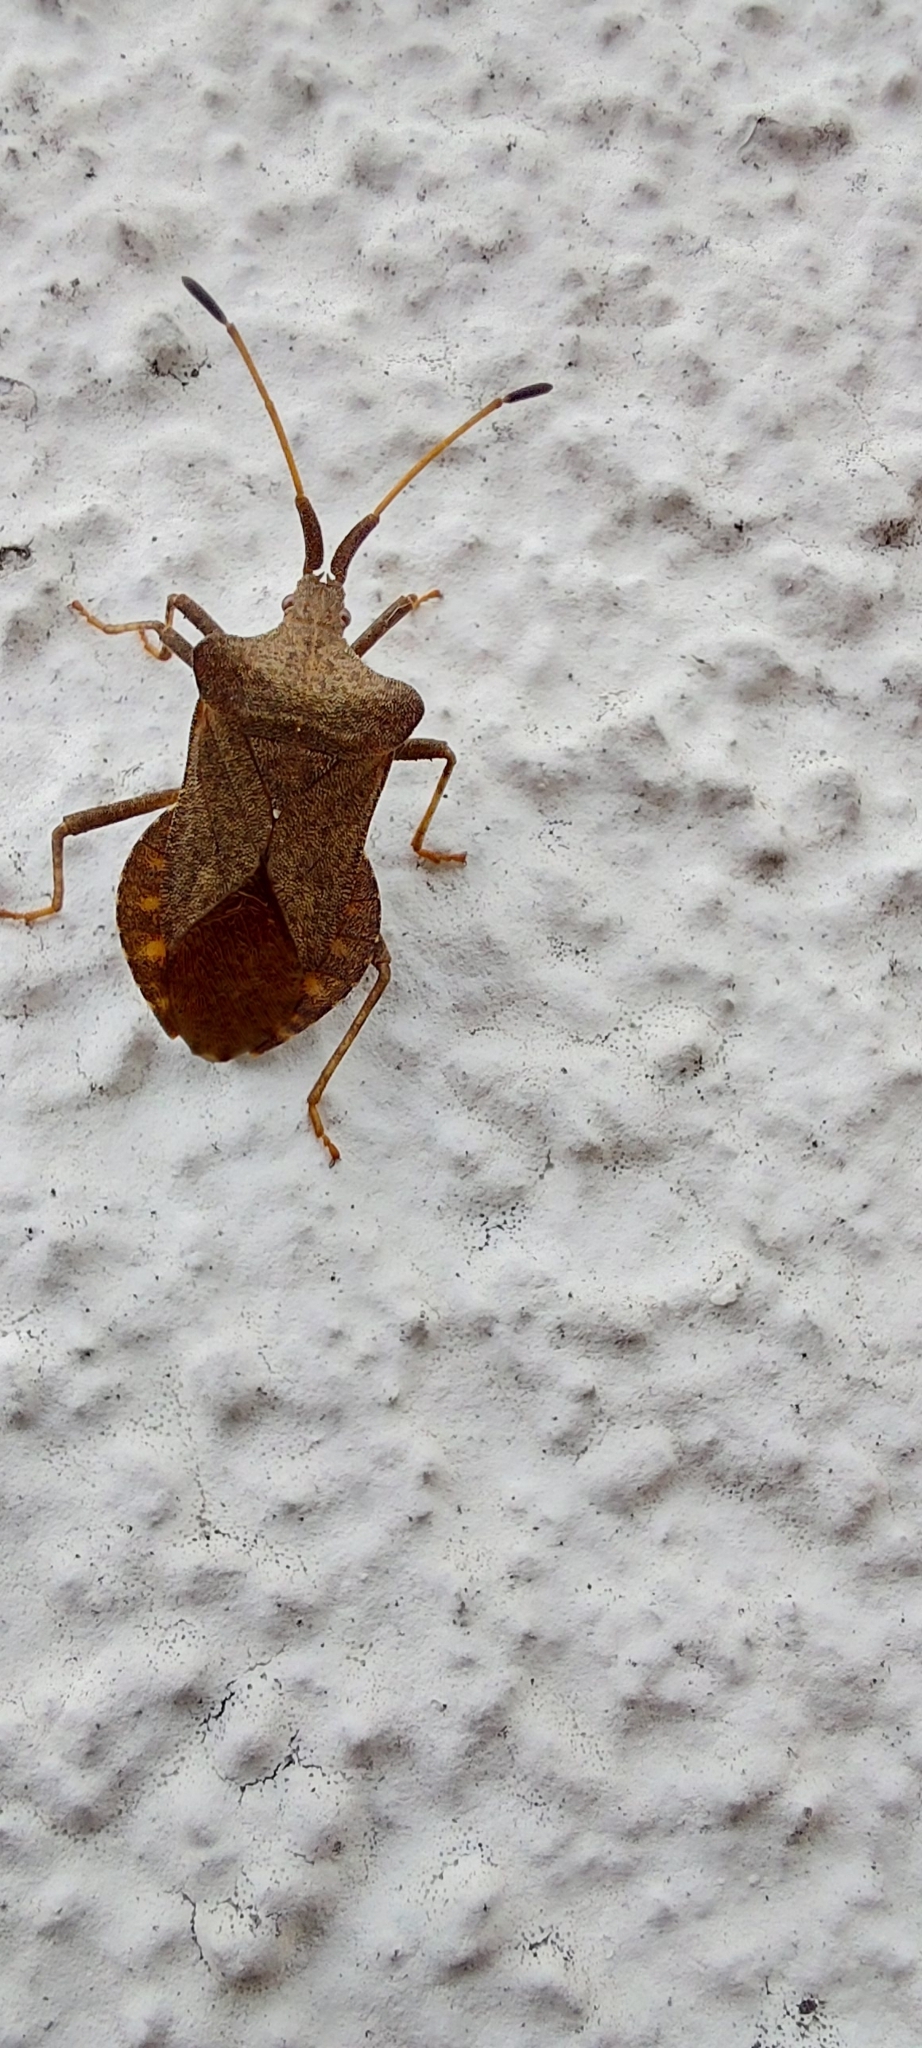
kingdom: Animalia
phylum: Arthropoda
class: Insecta
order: Hemiptera
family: Coreidae
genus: Coreus
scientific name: Coreus marginatus
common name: Dock bug
